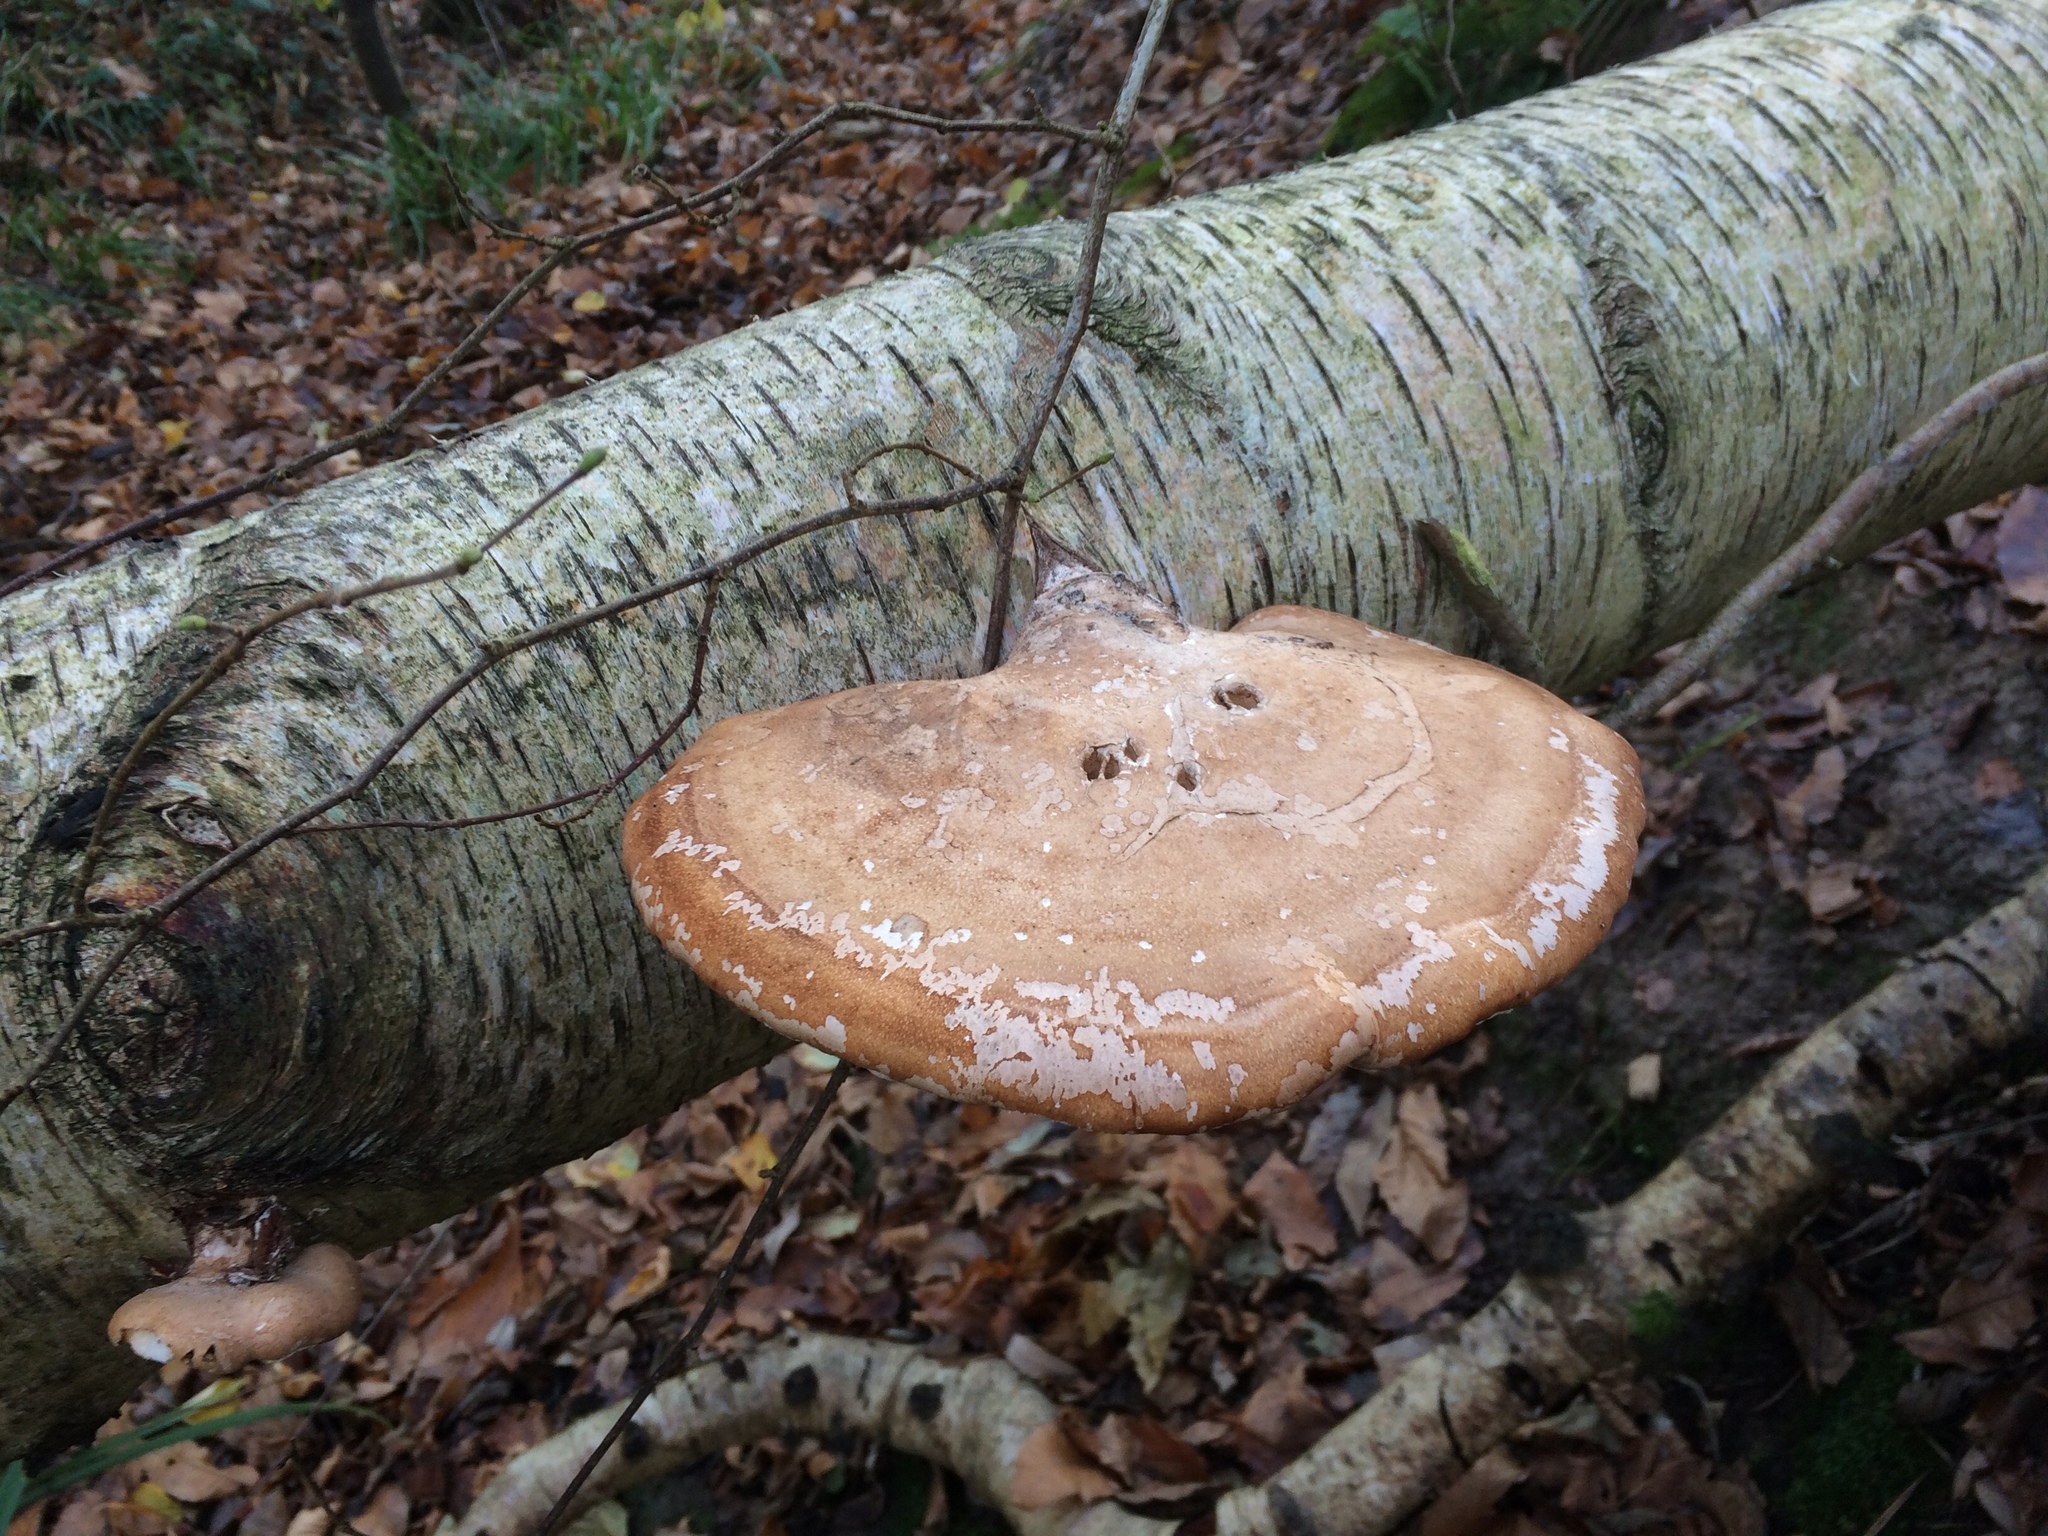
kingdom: Fungi
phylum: Basidiomycota
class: Agaricomycetes
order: Polyporales
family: Fomitopsidaceae
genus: Fomitopsis
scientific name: Fomitopsis betulina
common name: Birch polypore
